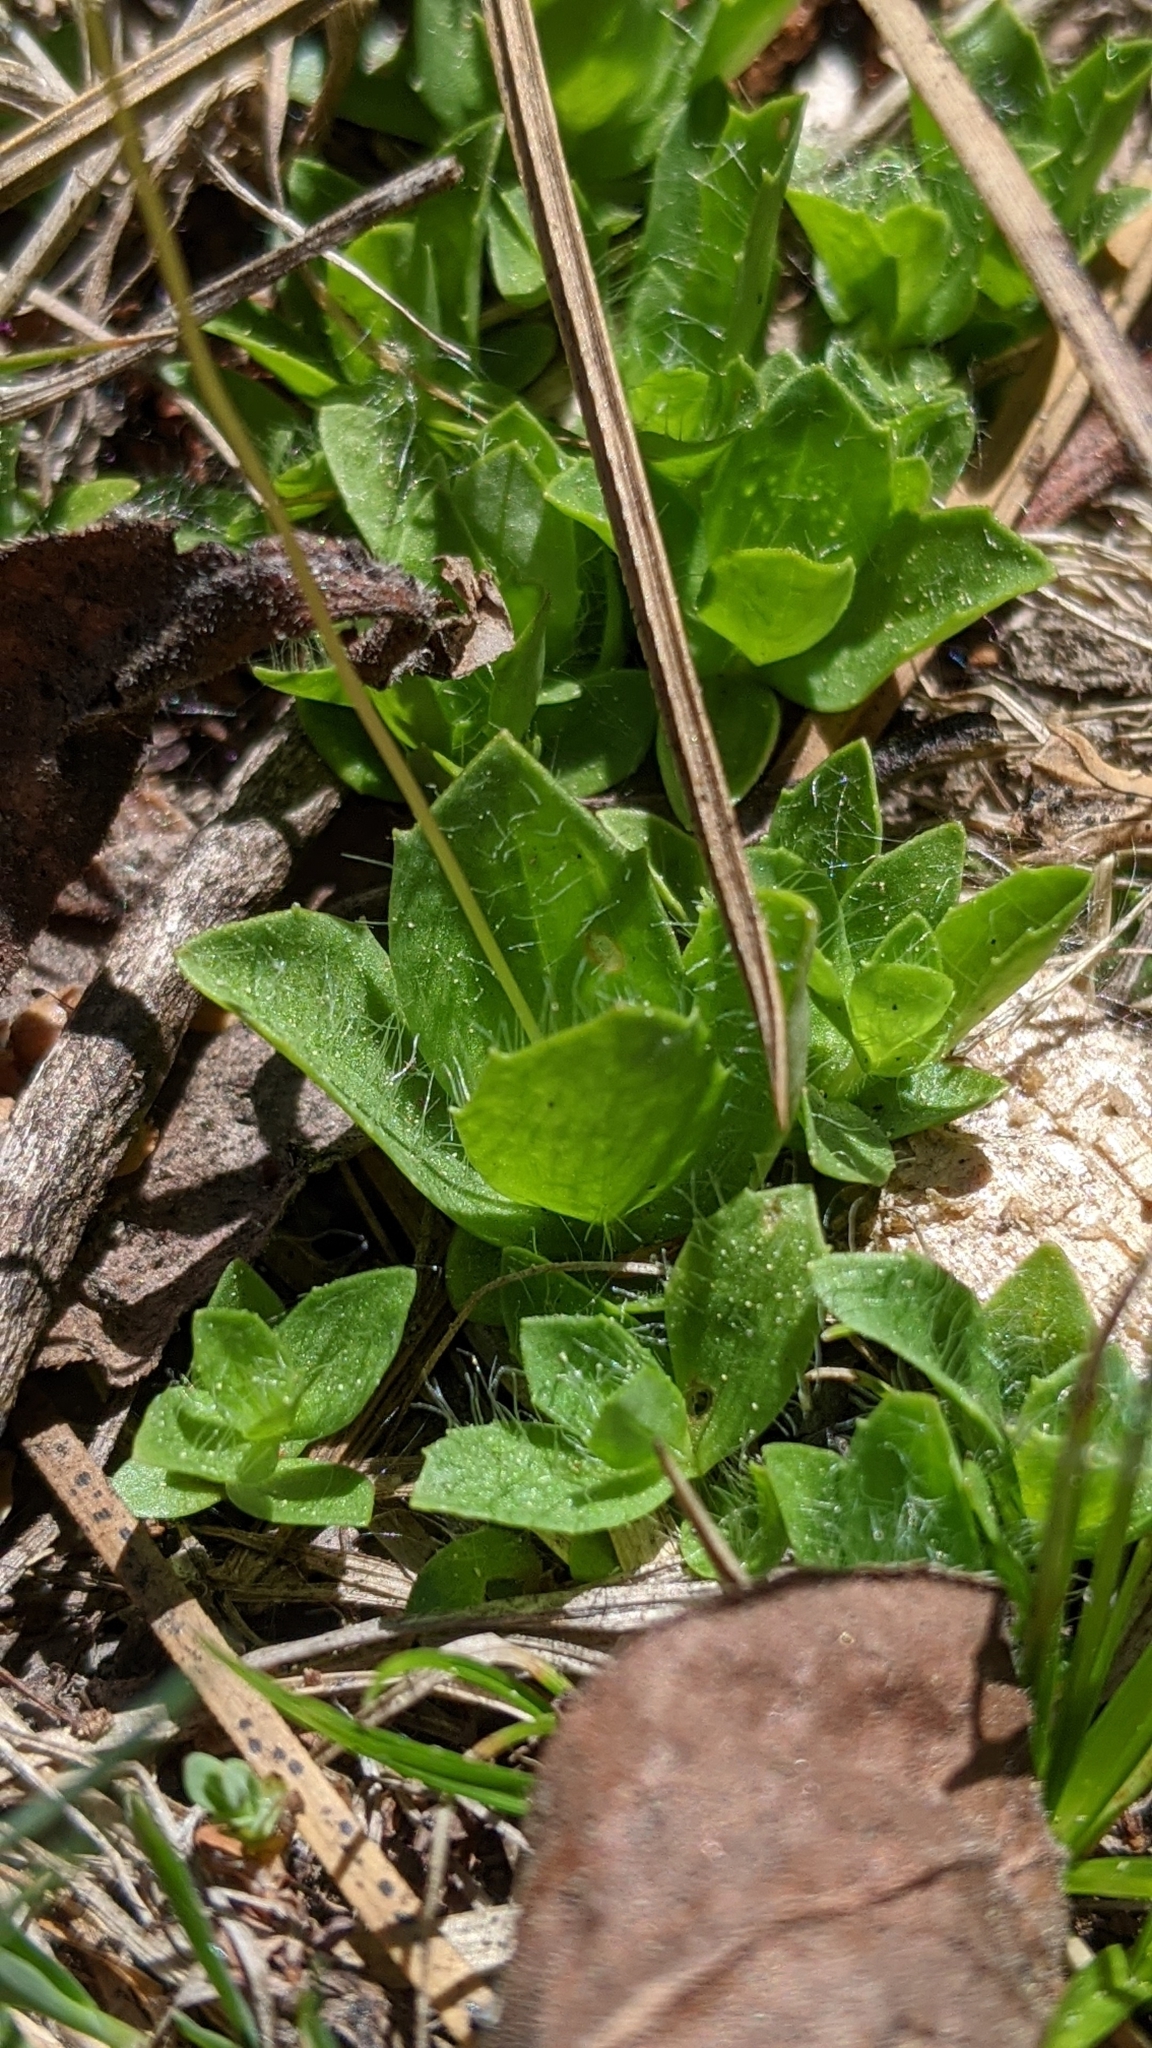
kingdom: Plantae
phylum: Tracheophyta
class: Magnoliopsida
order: Lamiales
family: Phrymaceae
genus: Erythranthe
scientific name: Erythranthe primuloides
